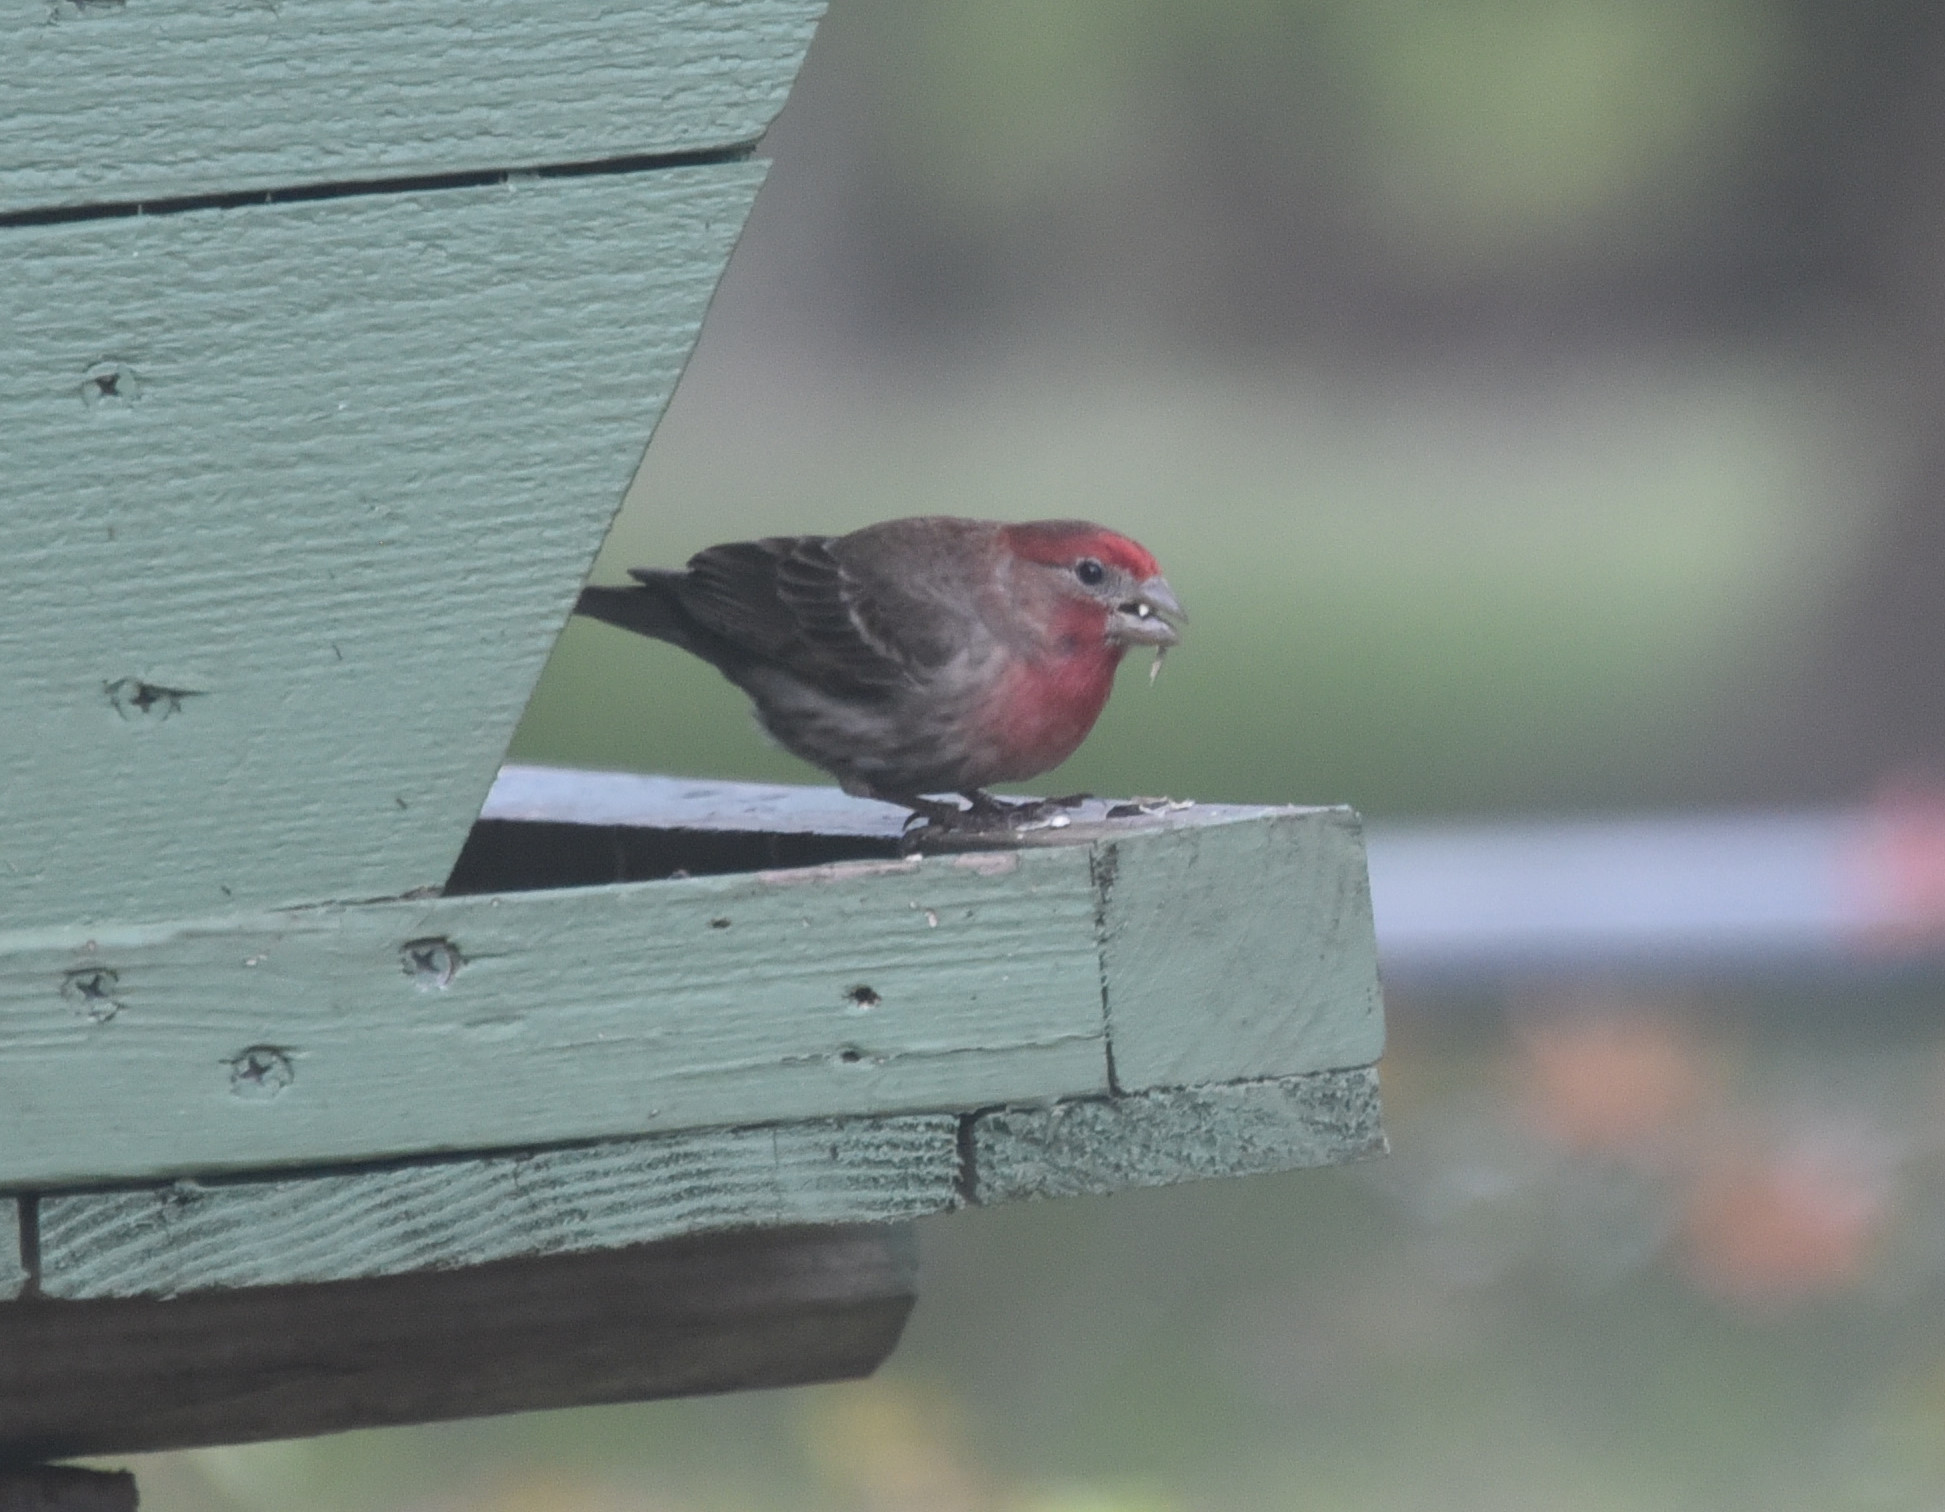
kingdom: Animalia
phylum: Chordata
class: Aves
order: Passeriformes
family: Fringillidae
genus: Haemorhous
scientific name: Haemorhous mexicanus
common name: House finch
